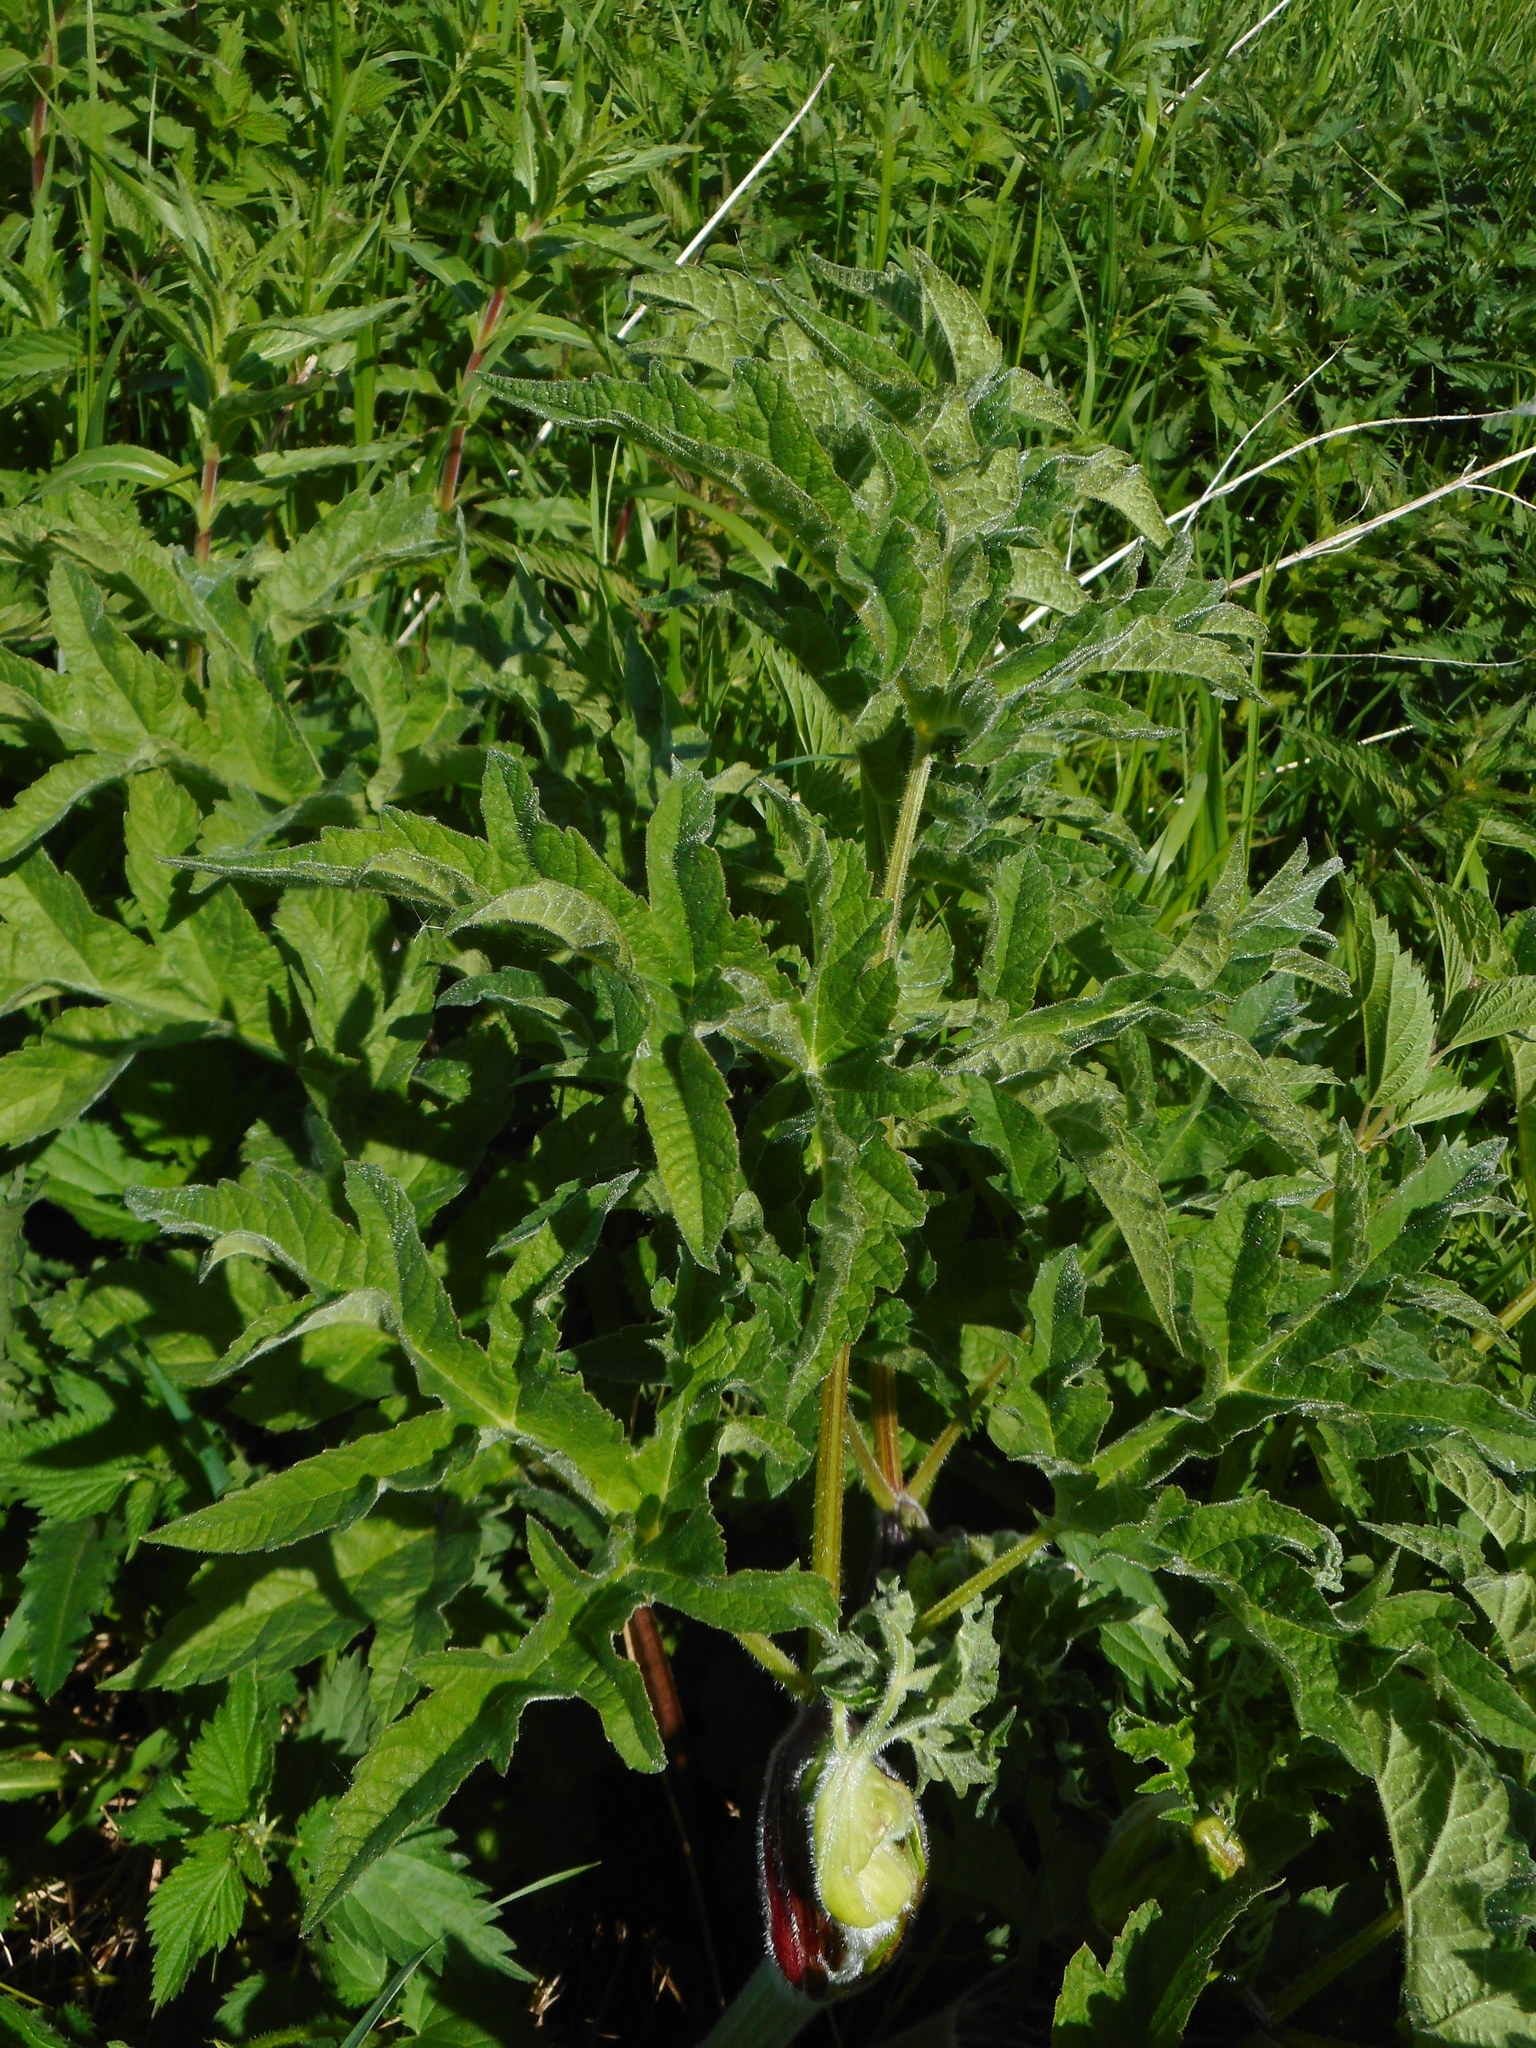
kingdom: Plantae
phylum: Tracheophyta
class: Magnoliopsida
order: Apiales
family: Apiaceae
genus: Heracleum
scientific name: Heracleum sphondylium
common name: Hogweed
